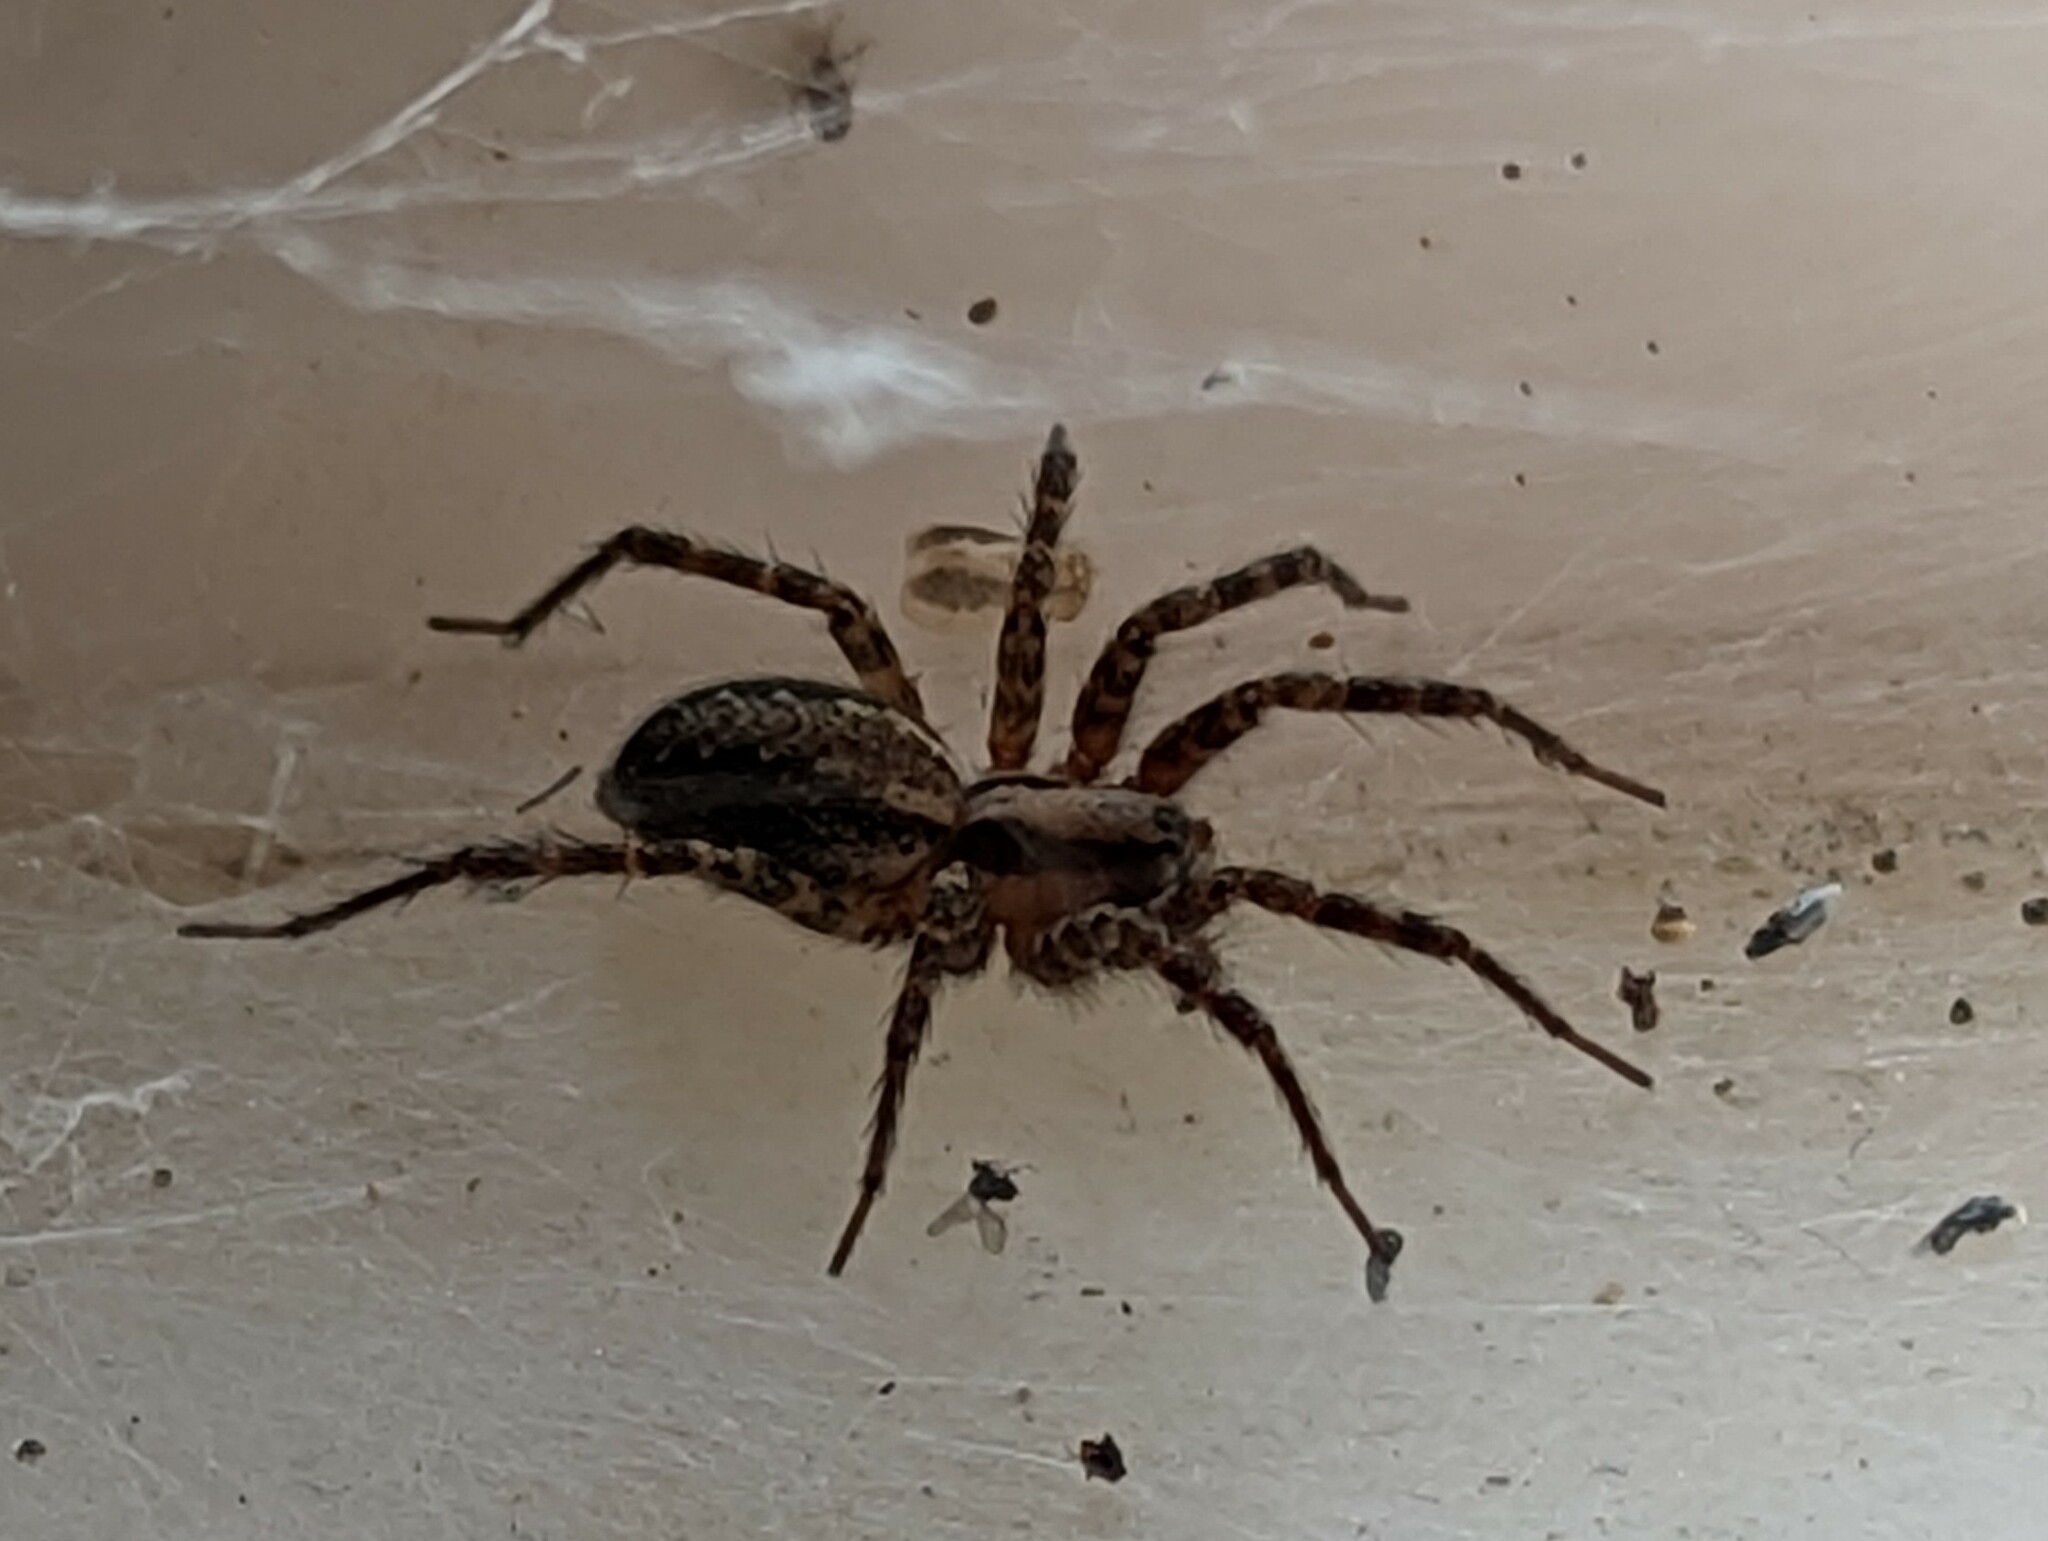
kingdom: Animalia
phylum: Arthropoda
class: Arachnida
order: Araneae
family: Agelenidae
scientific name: Agelenidae
